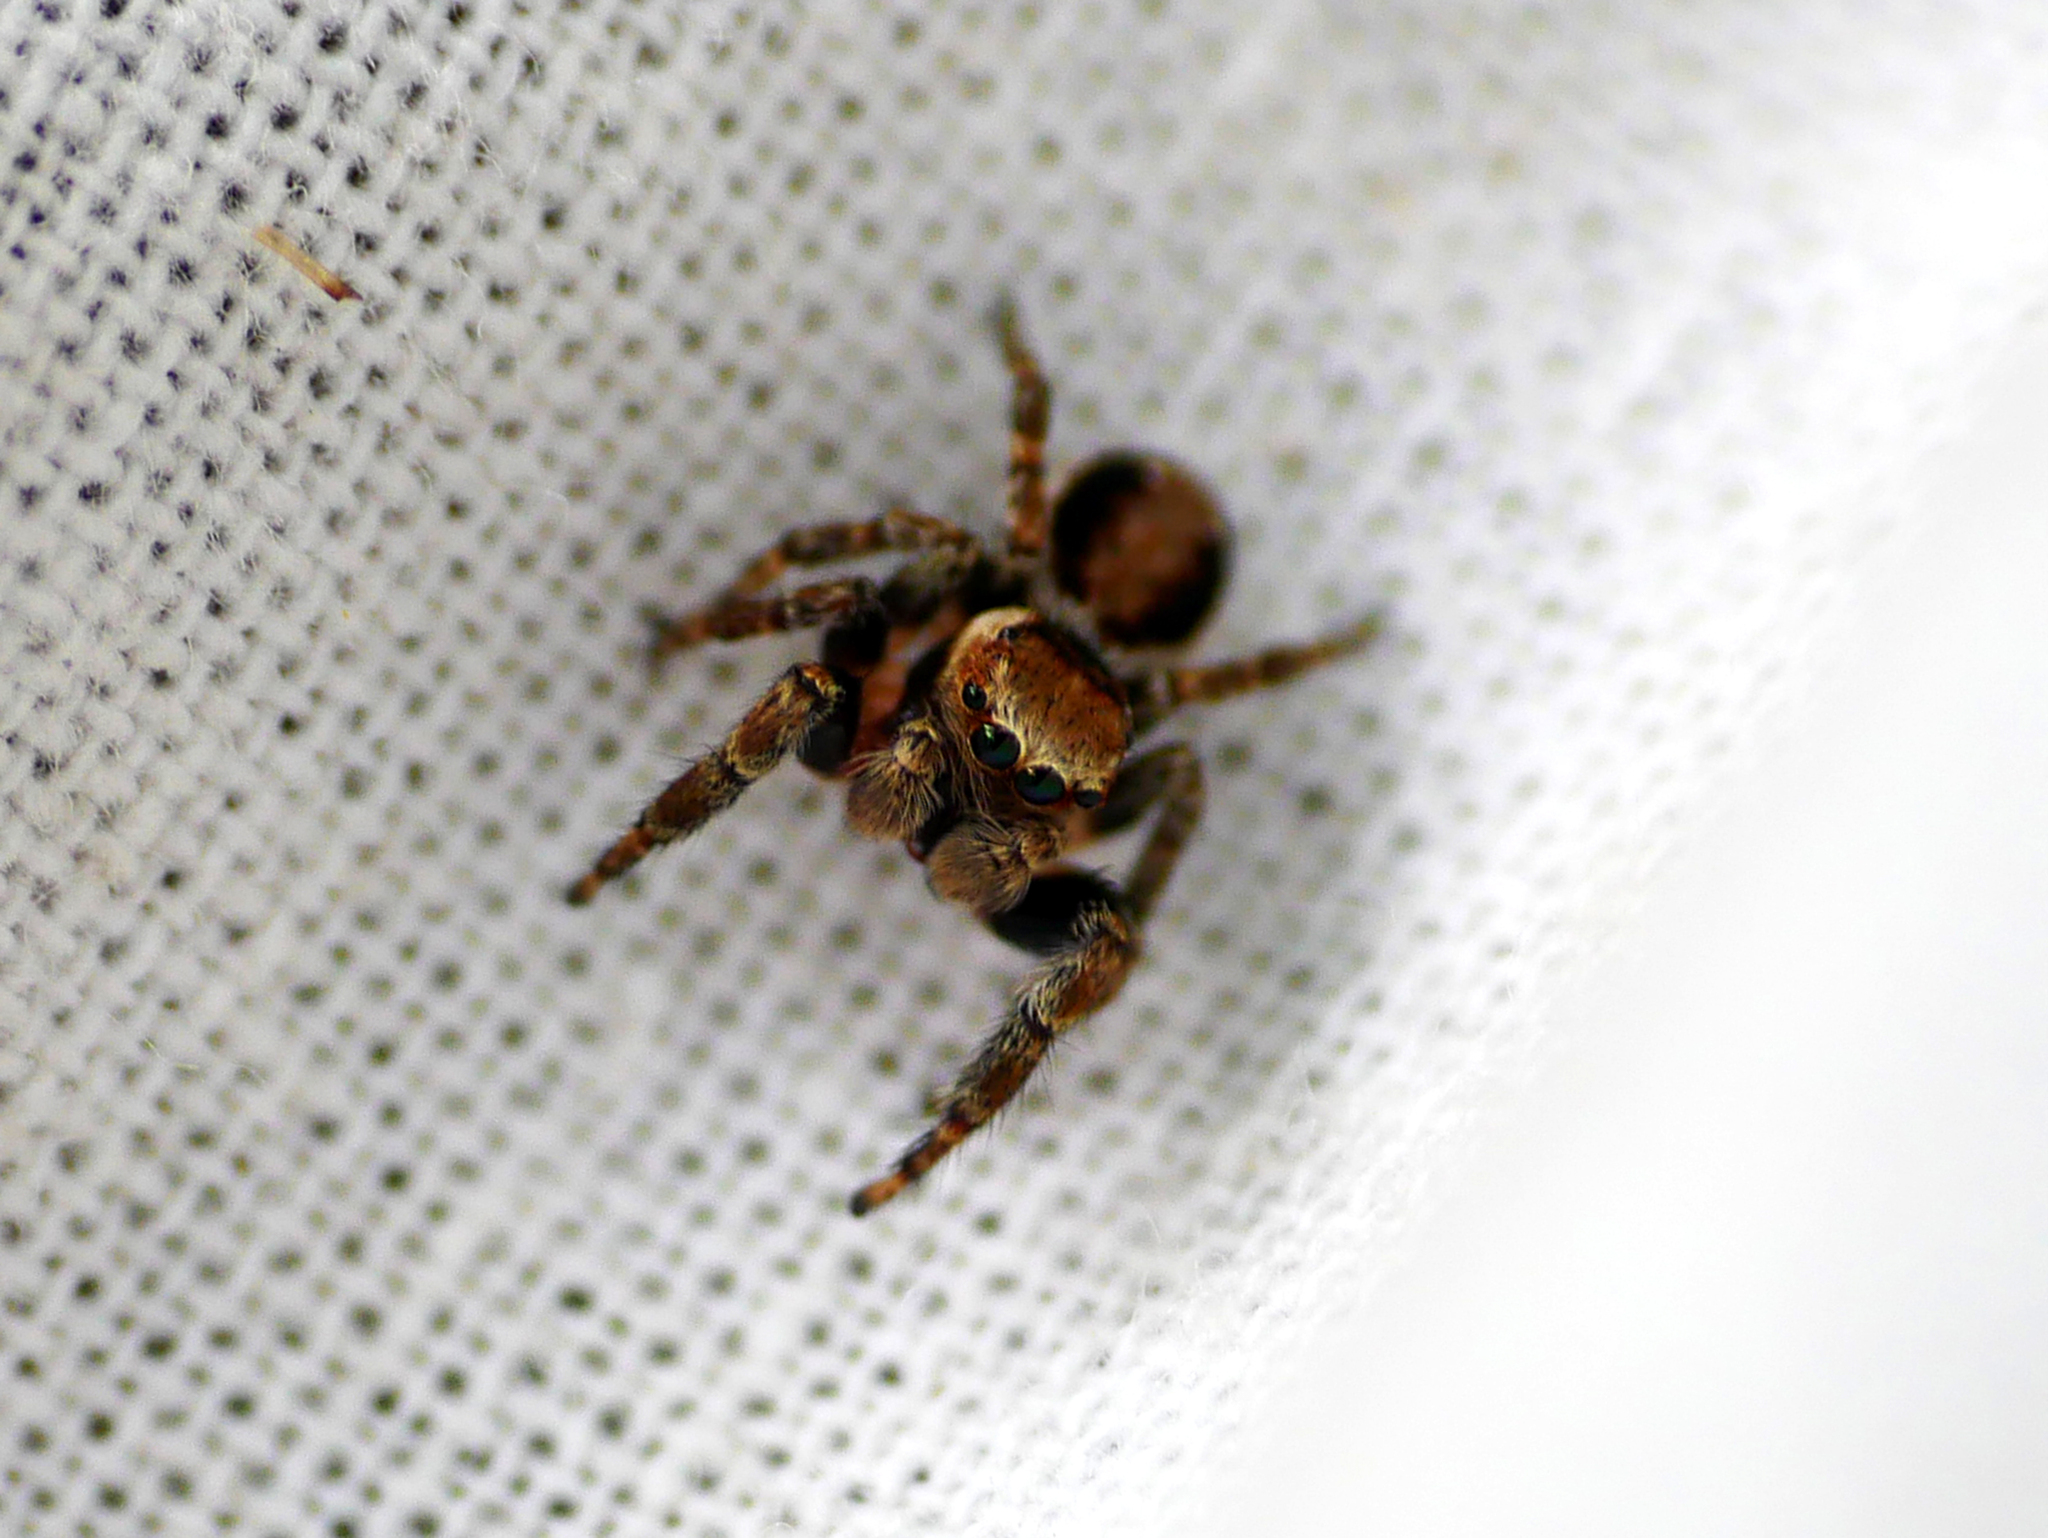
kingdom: Animalia
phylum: Arthropoda
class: Arachnida
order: Araneae
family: Salticidae
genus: Evarcha
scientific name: Evarcha falcata
